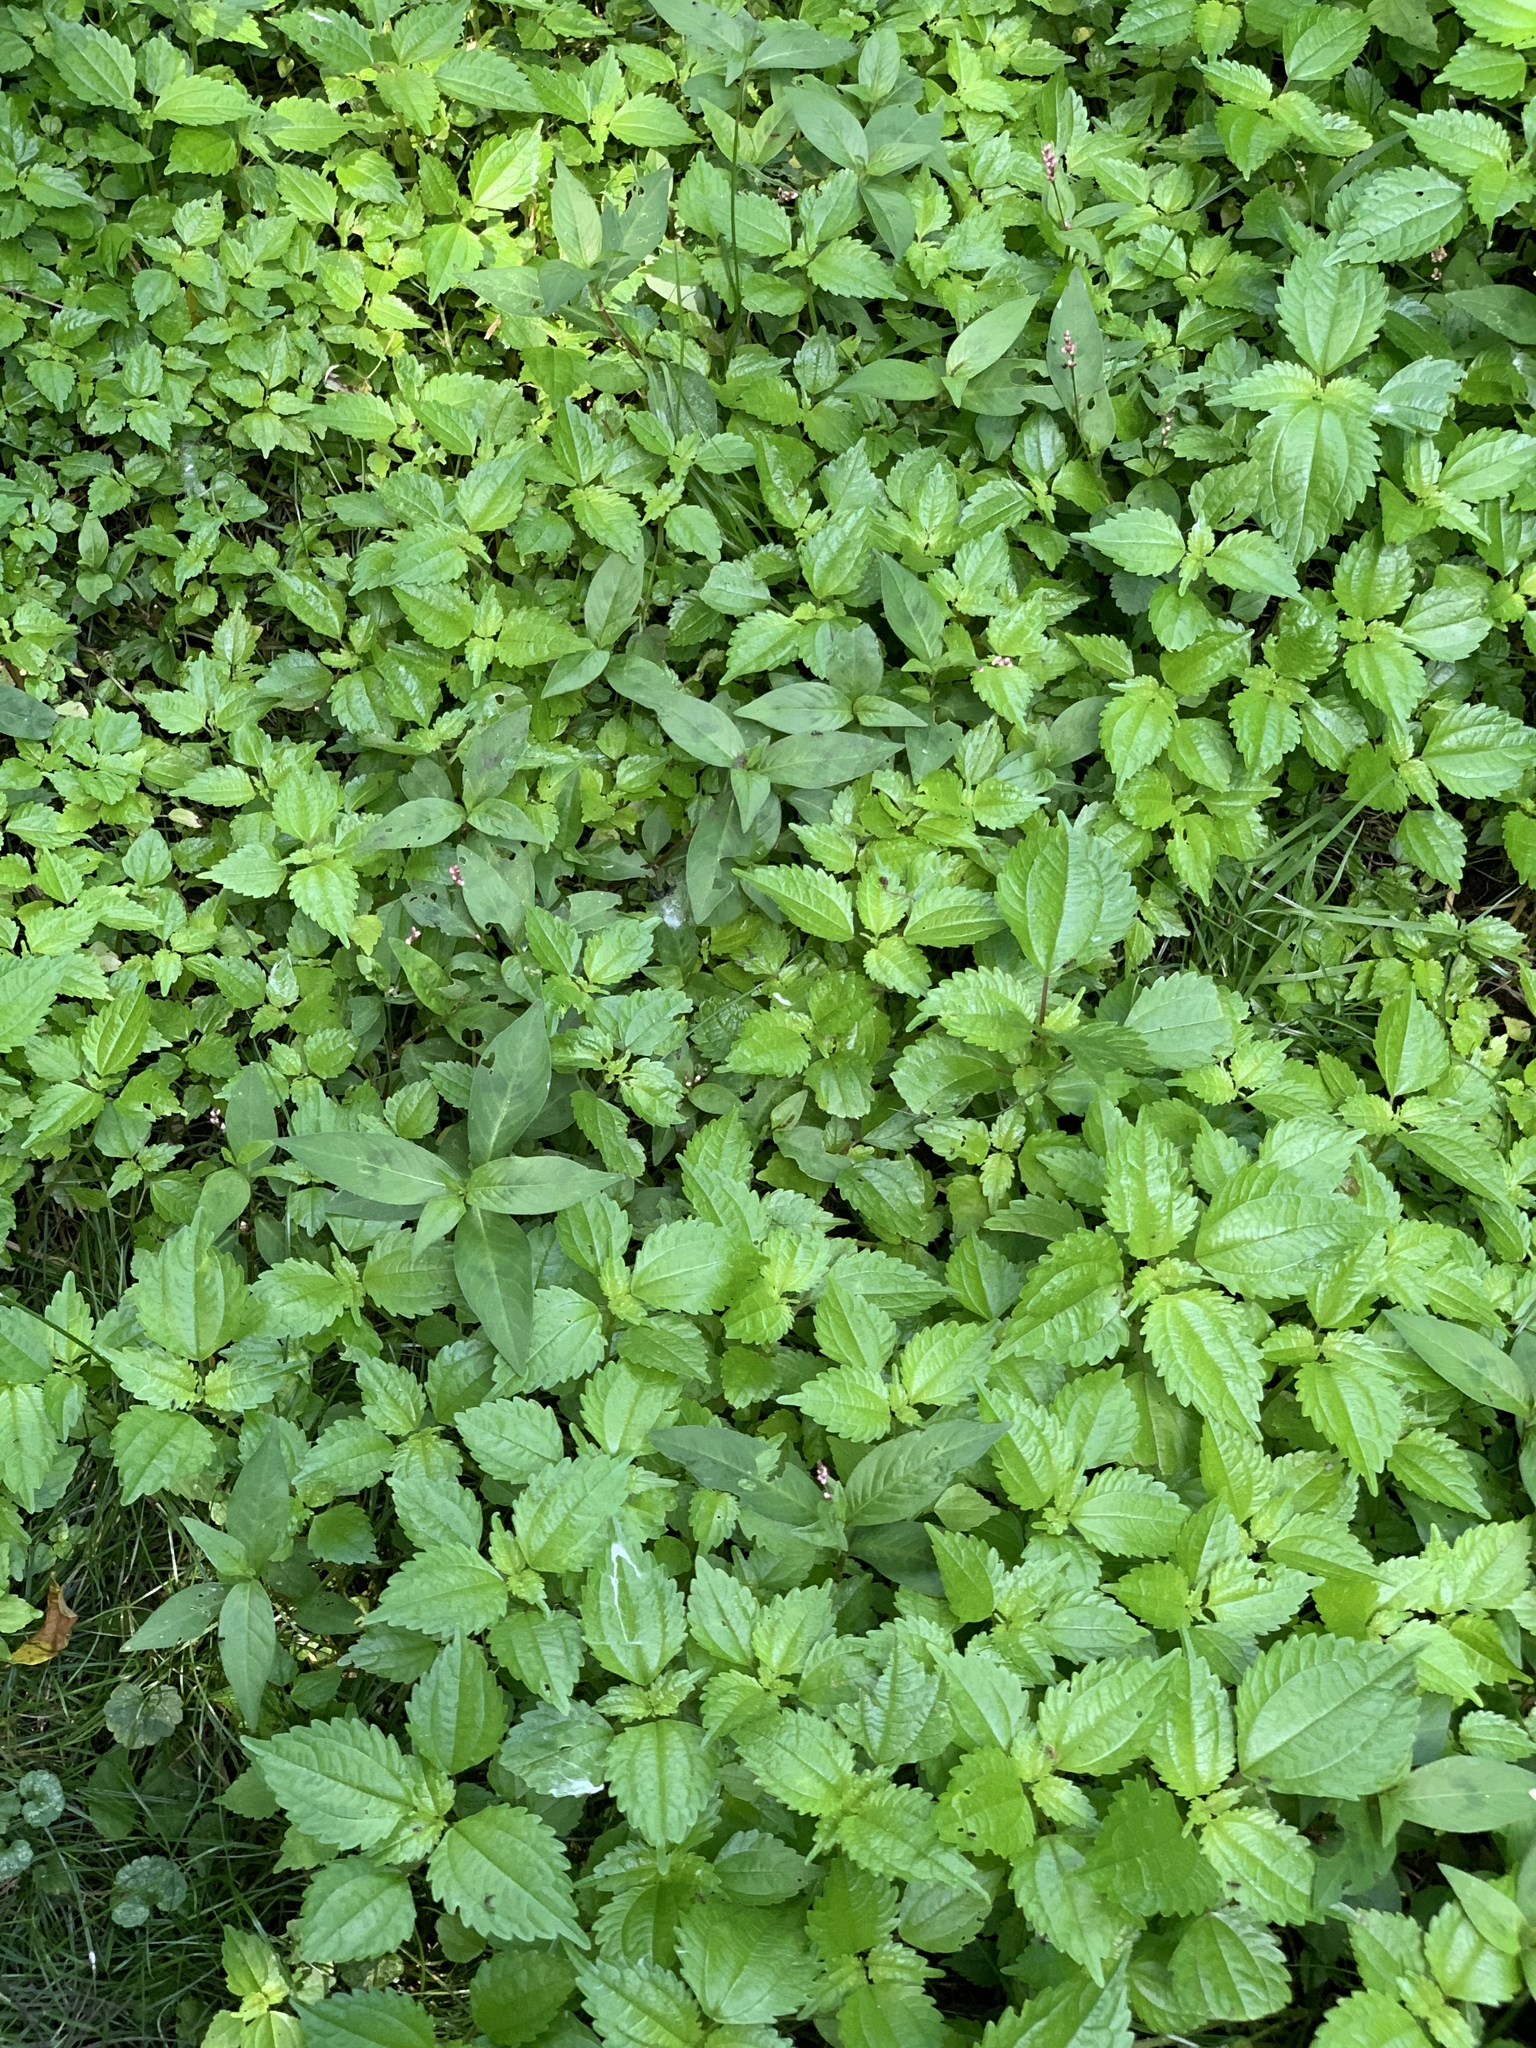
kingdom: Plantae
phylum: Tracheophyta
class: Magnoliopsida
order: Rosales
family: Urticaceae
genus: Pilea
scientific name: Pilea pumila
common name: Clearweed
